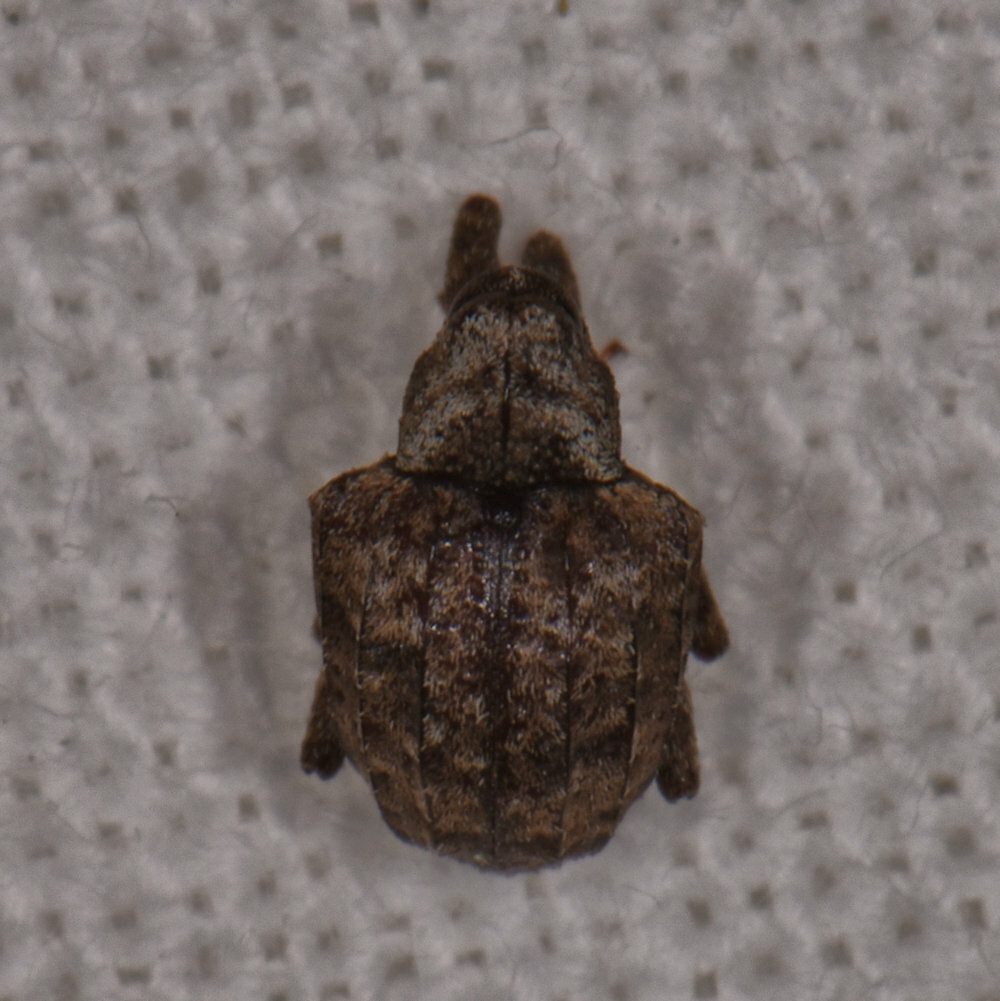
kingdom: Animalia
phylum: Arthropoda
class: Insecta
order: Coleoptera
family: Curculionidae
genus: Conotrachelus
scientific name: Conotrachelus crataegi
